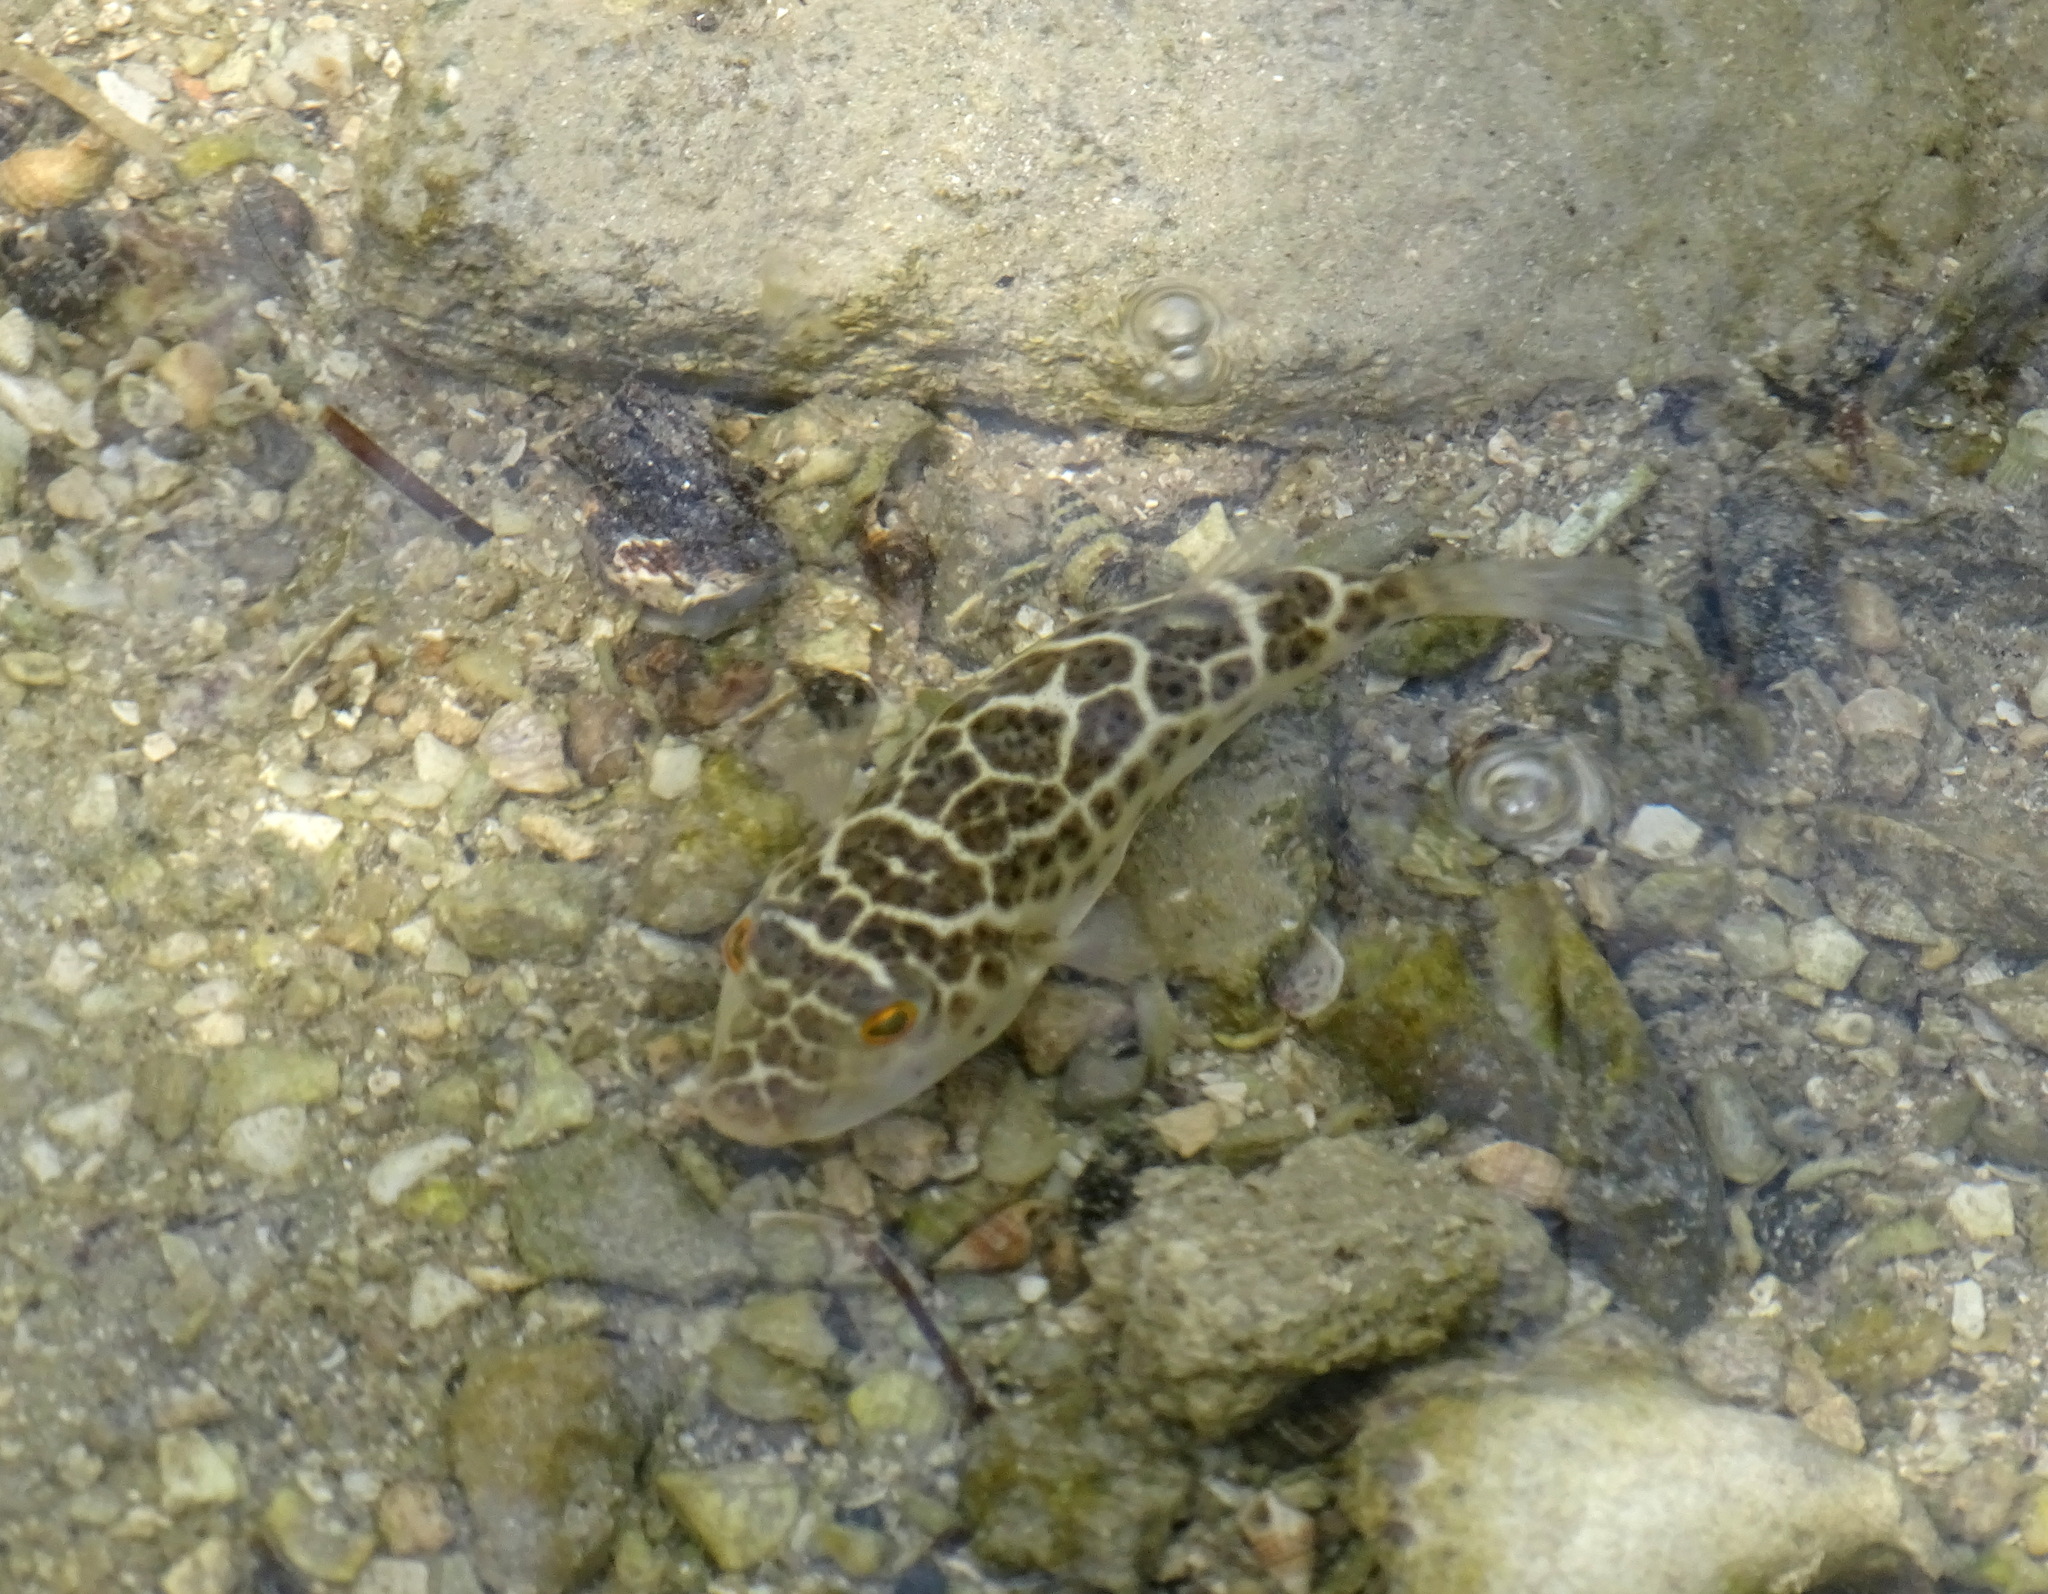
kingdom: Animalia
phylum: Chordata
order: Tetraodontiformes
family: Tetraodontidae
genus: Sphoeroides
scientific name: Sphoeroides testudineus
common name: Checkered puffer
